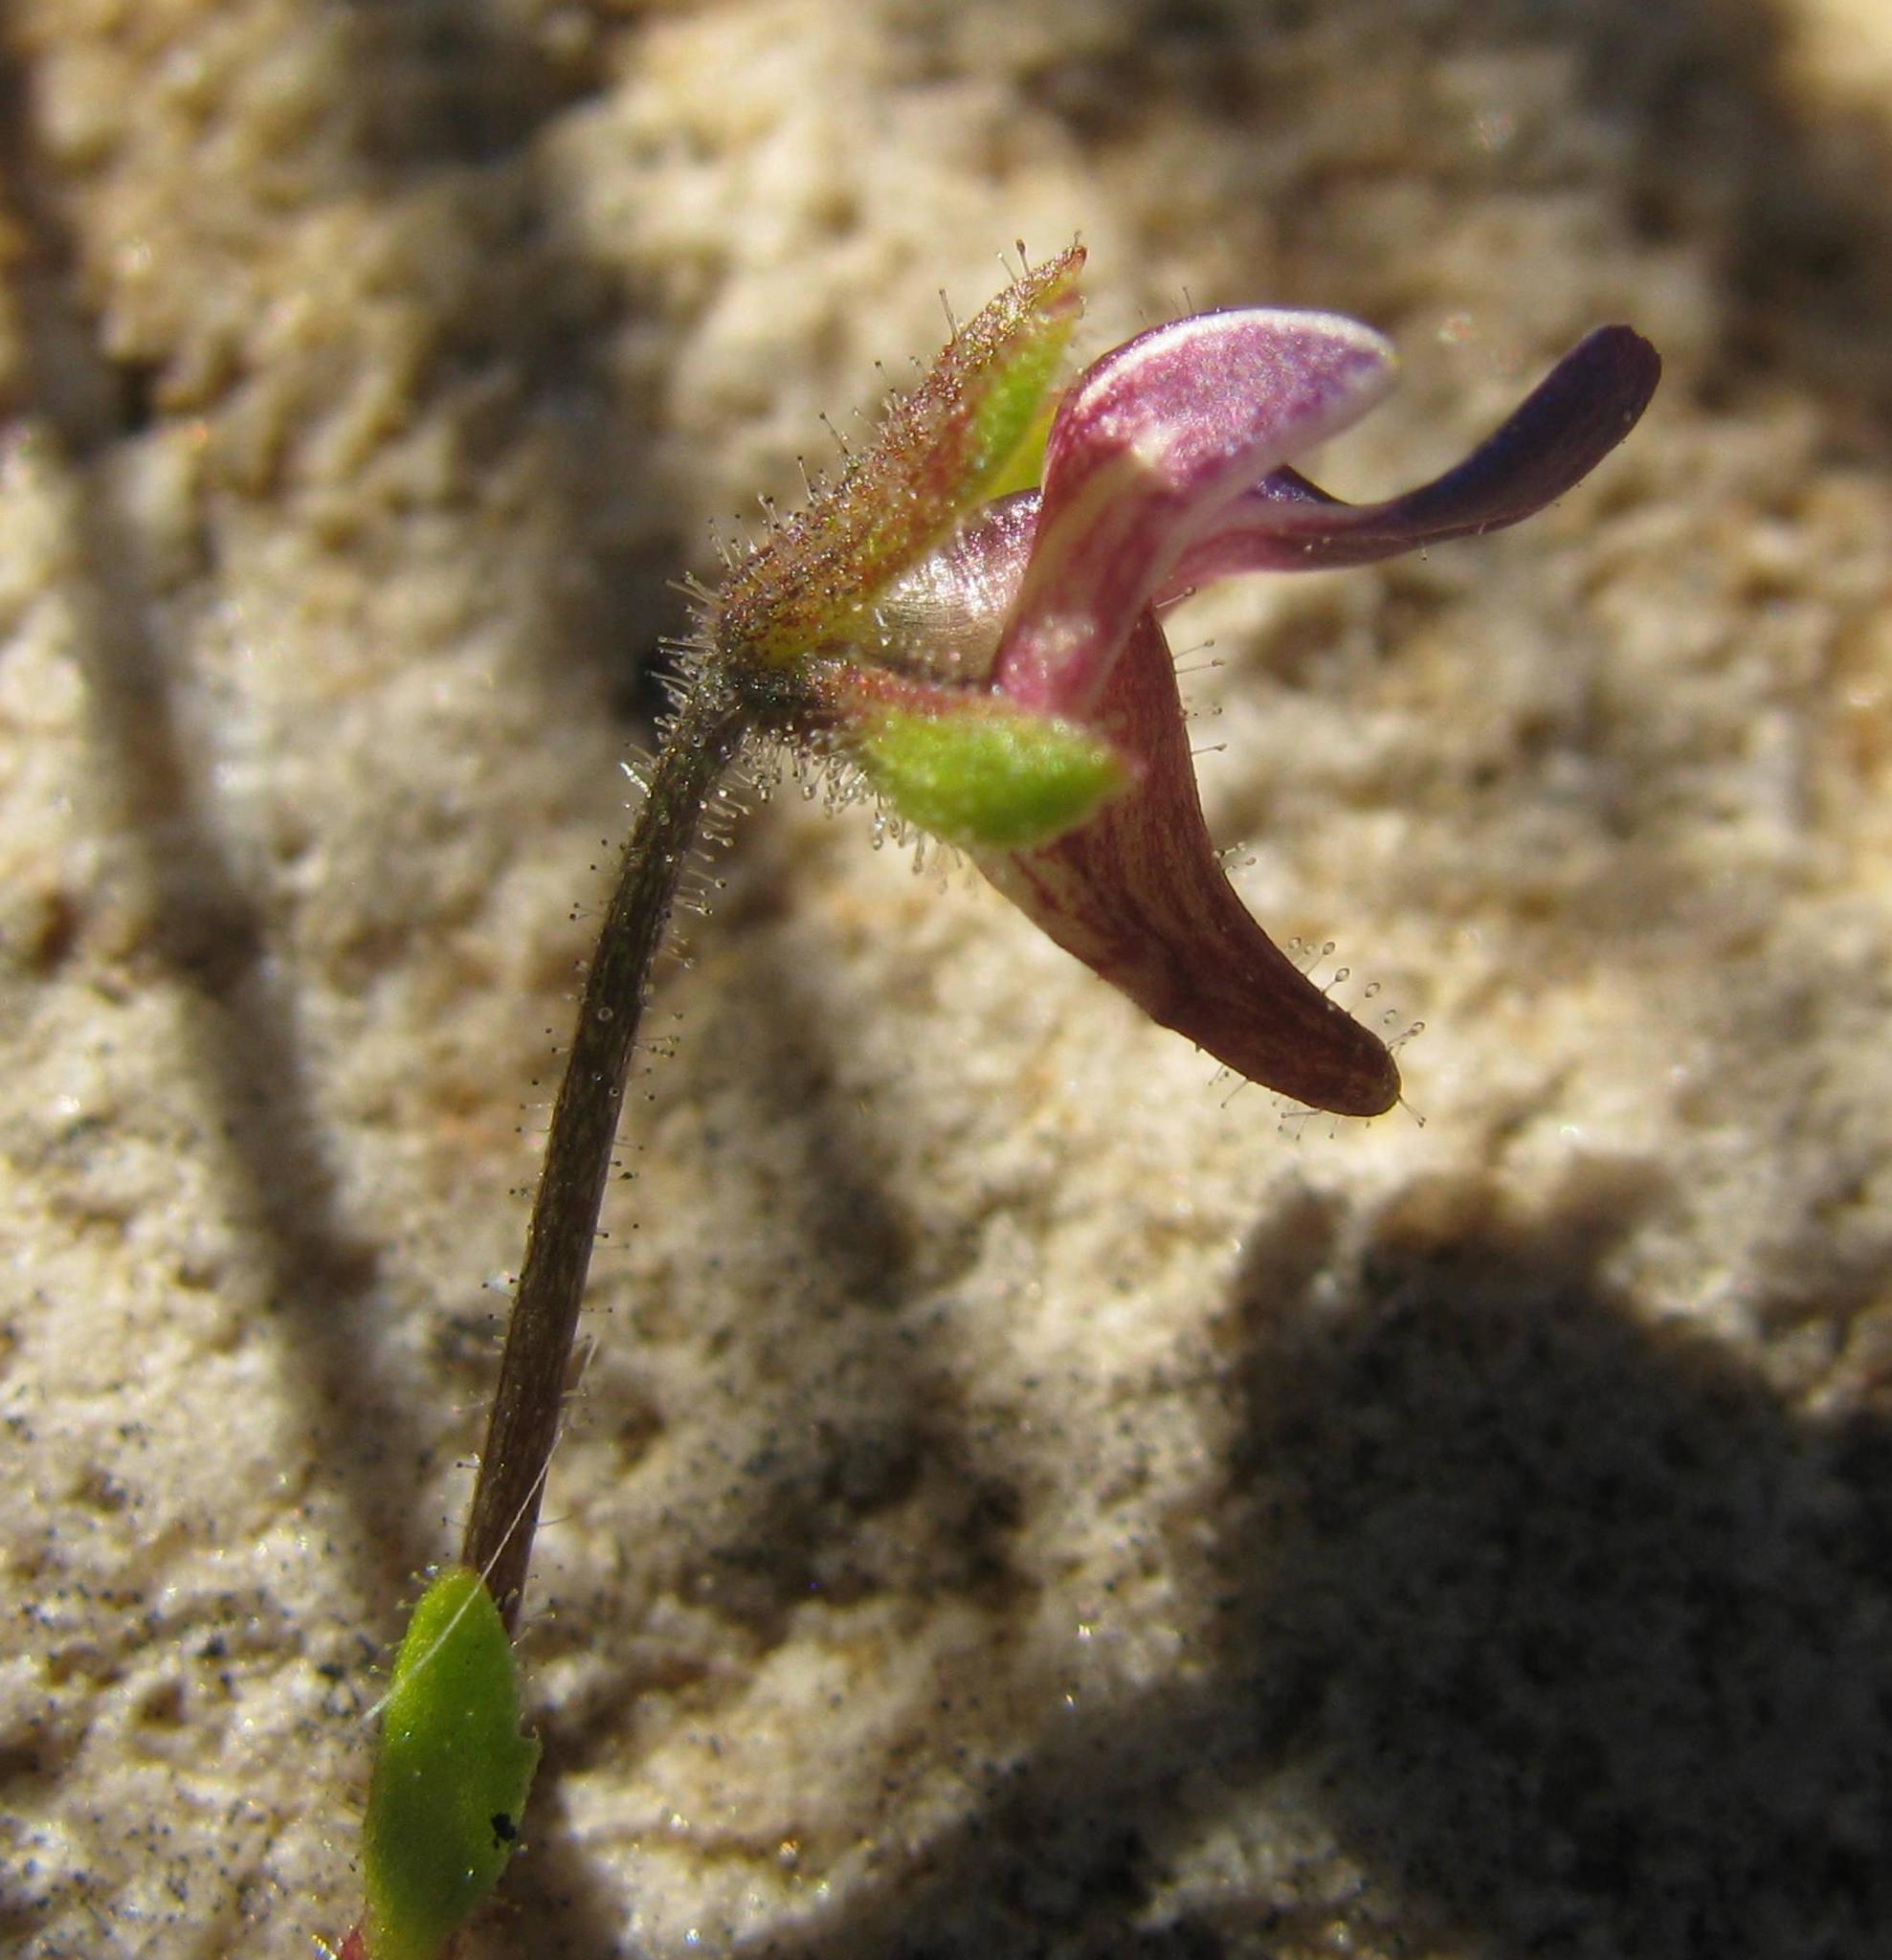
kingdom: Plantae
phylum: Tracheophyta
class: Magnoliopsida
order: Lamiales
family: Scrophulariaceae
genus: Nemesia
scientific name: Nemesia barbata
